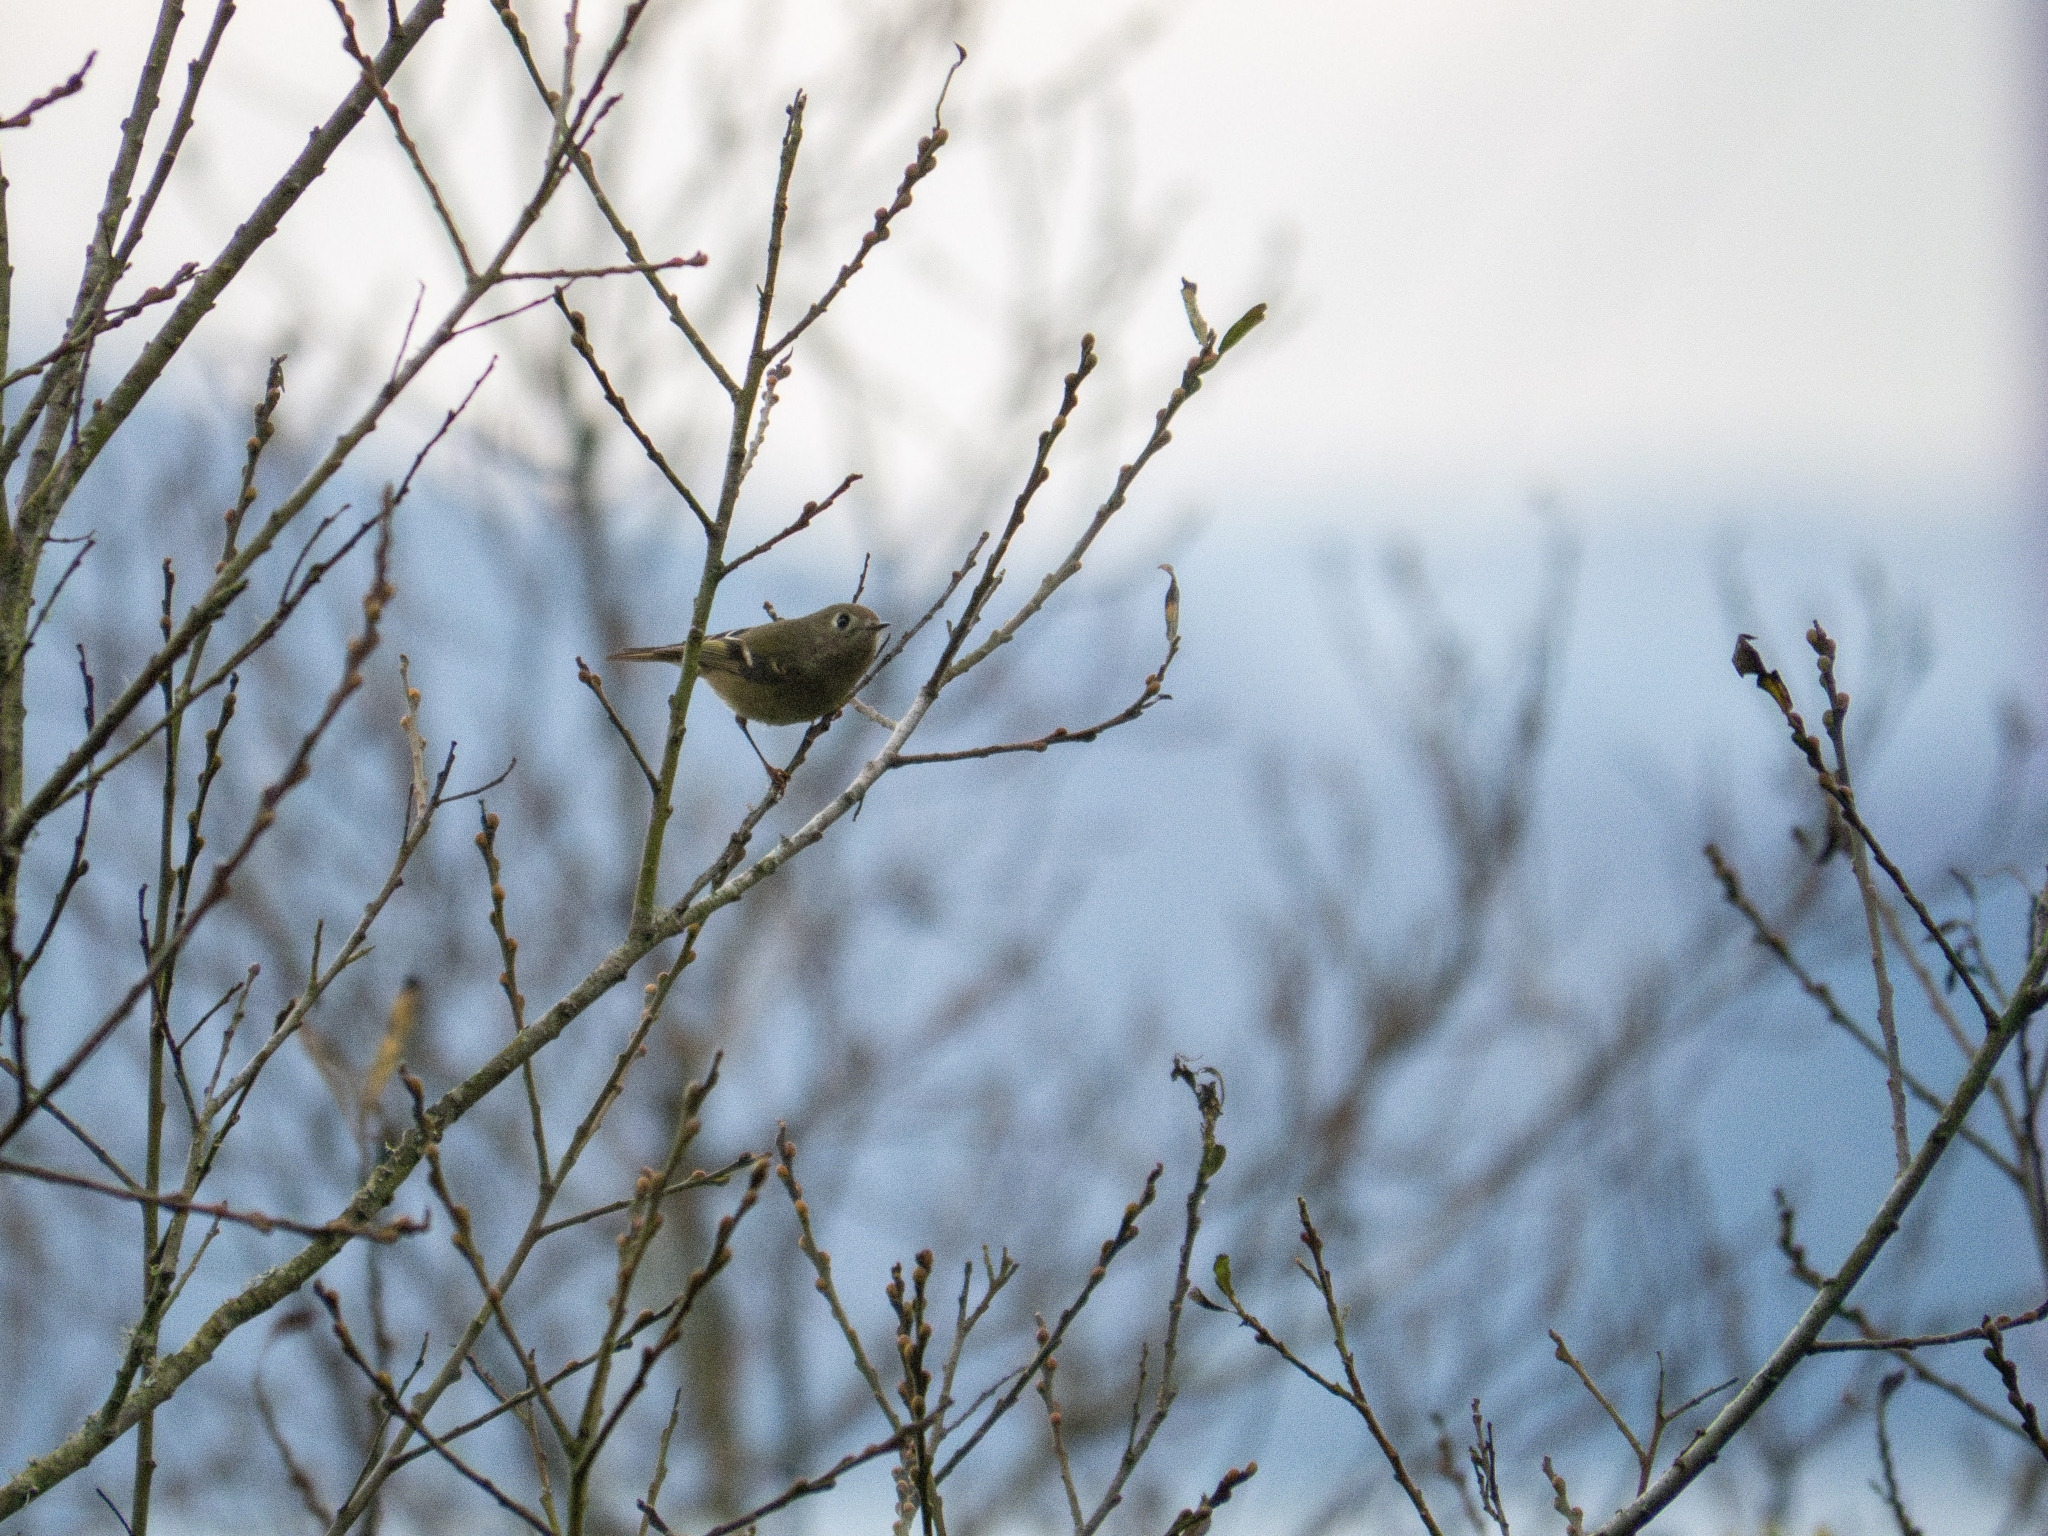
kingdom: Animalia
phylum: Chordata
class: Aves
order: Passeriformes
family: Regulidae
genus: Regulus
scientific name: Regulus calendula
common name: Ruby-crowned kinglet
